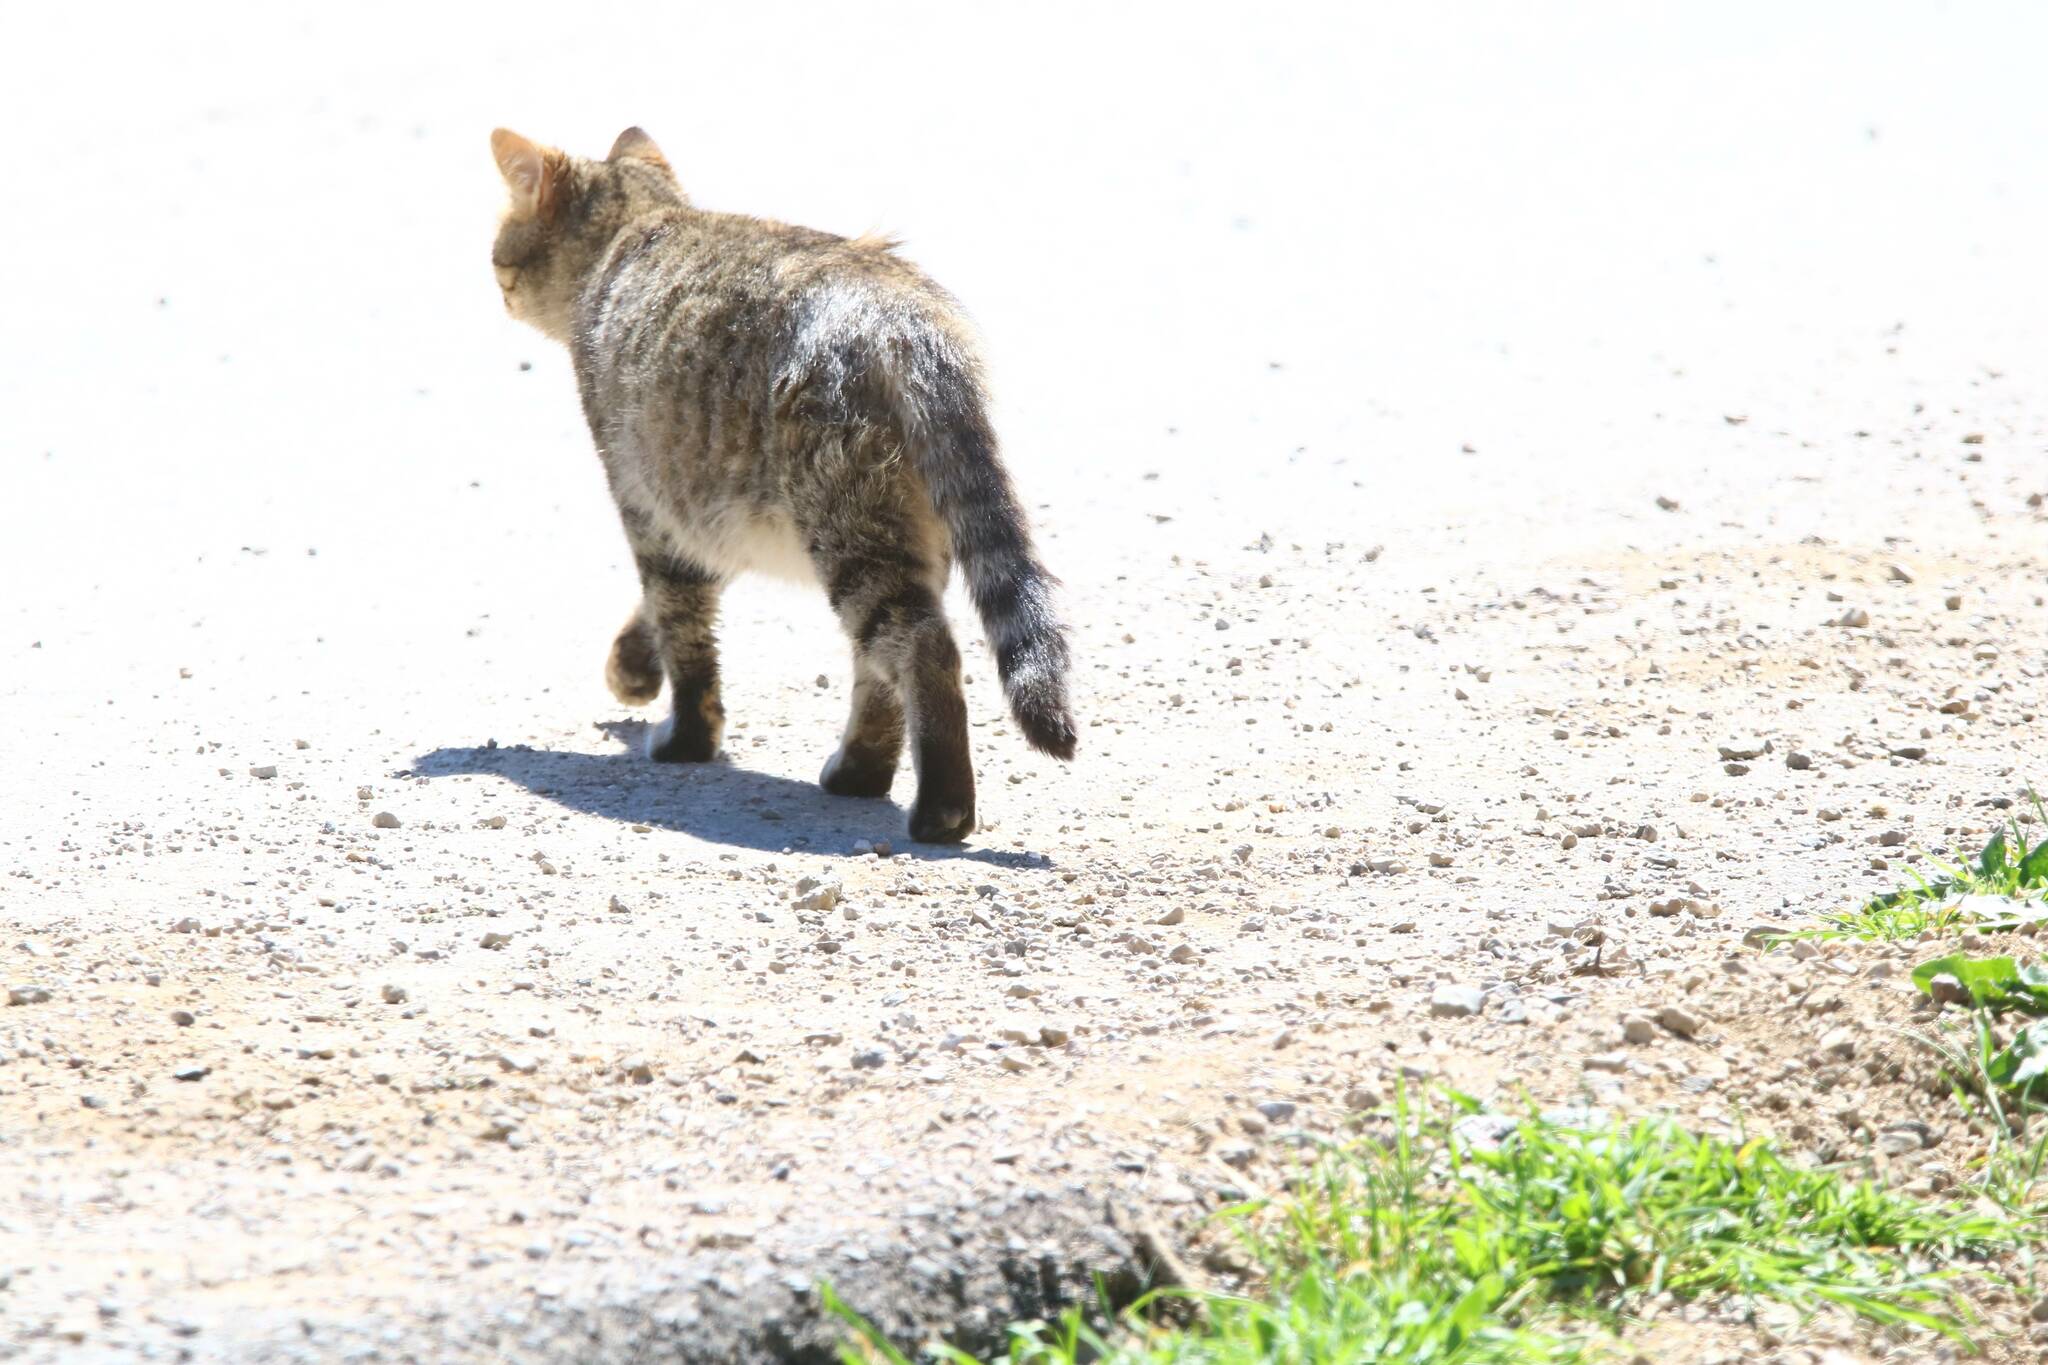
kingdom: Animalia
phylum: Chordata
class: Mammalia
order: Carnivora
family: Felidae
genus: Felis
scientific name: Felis catus
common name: Domestic cat
